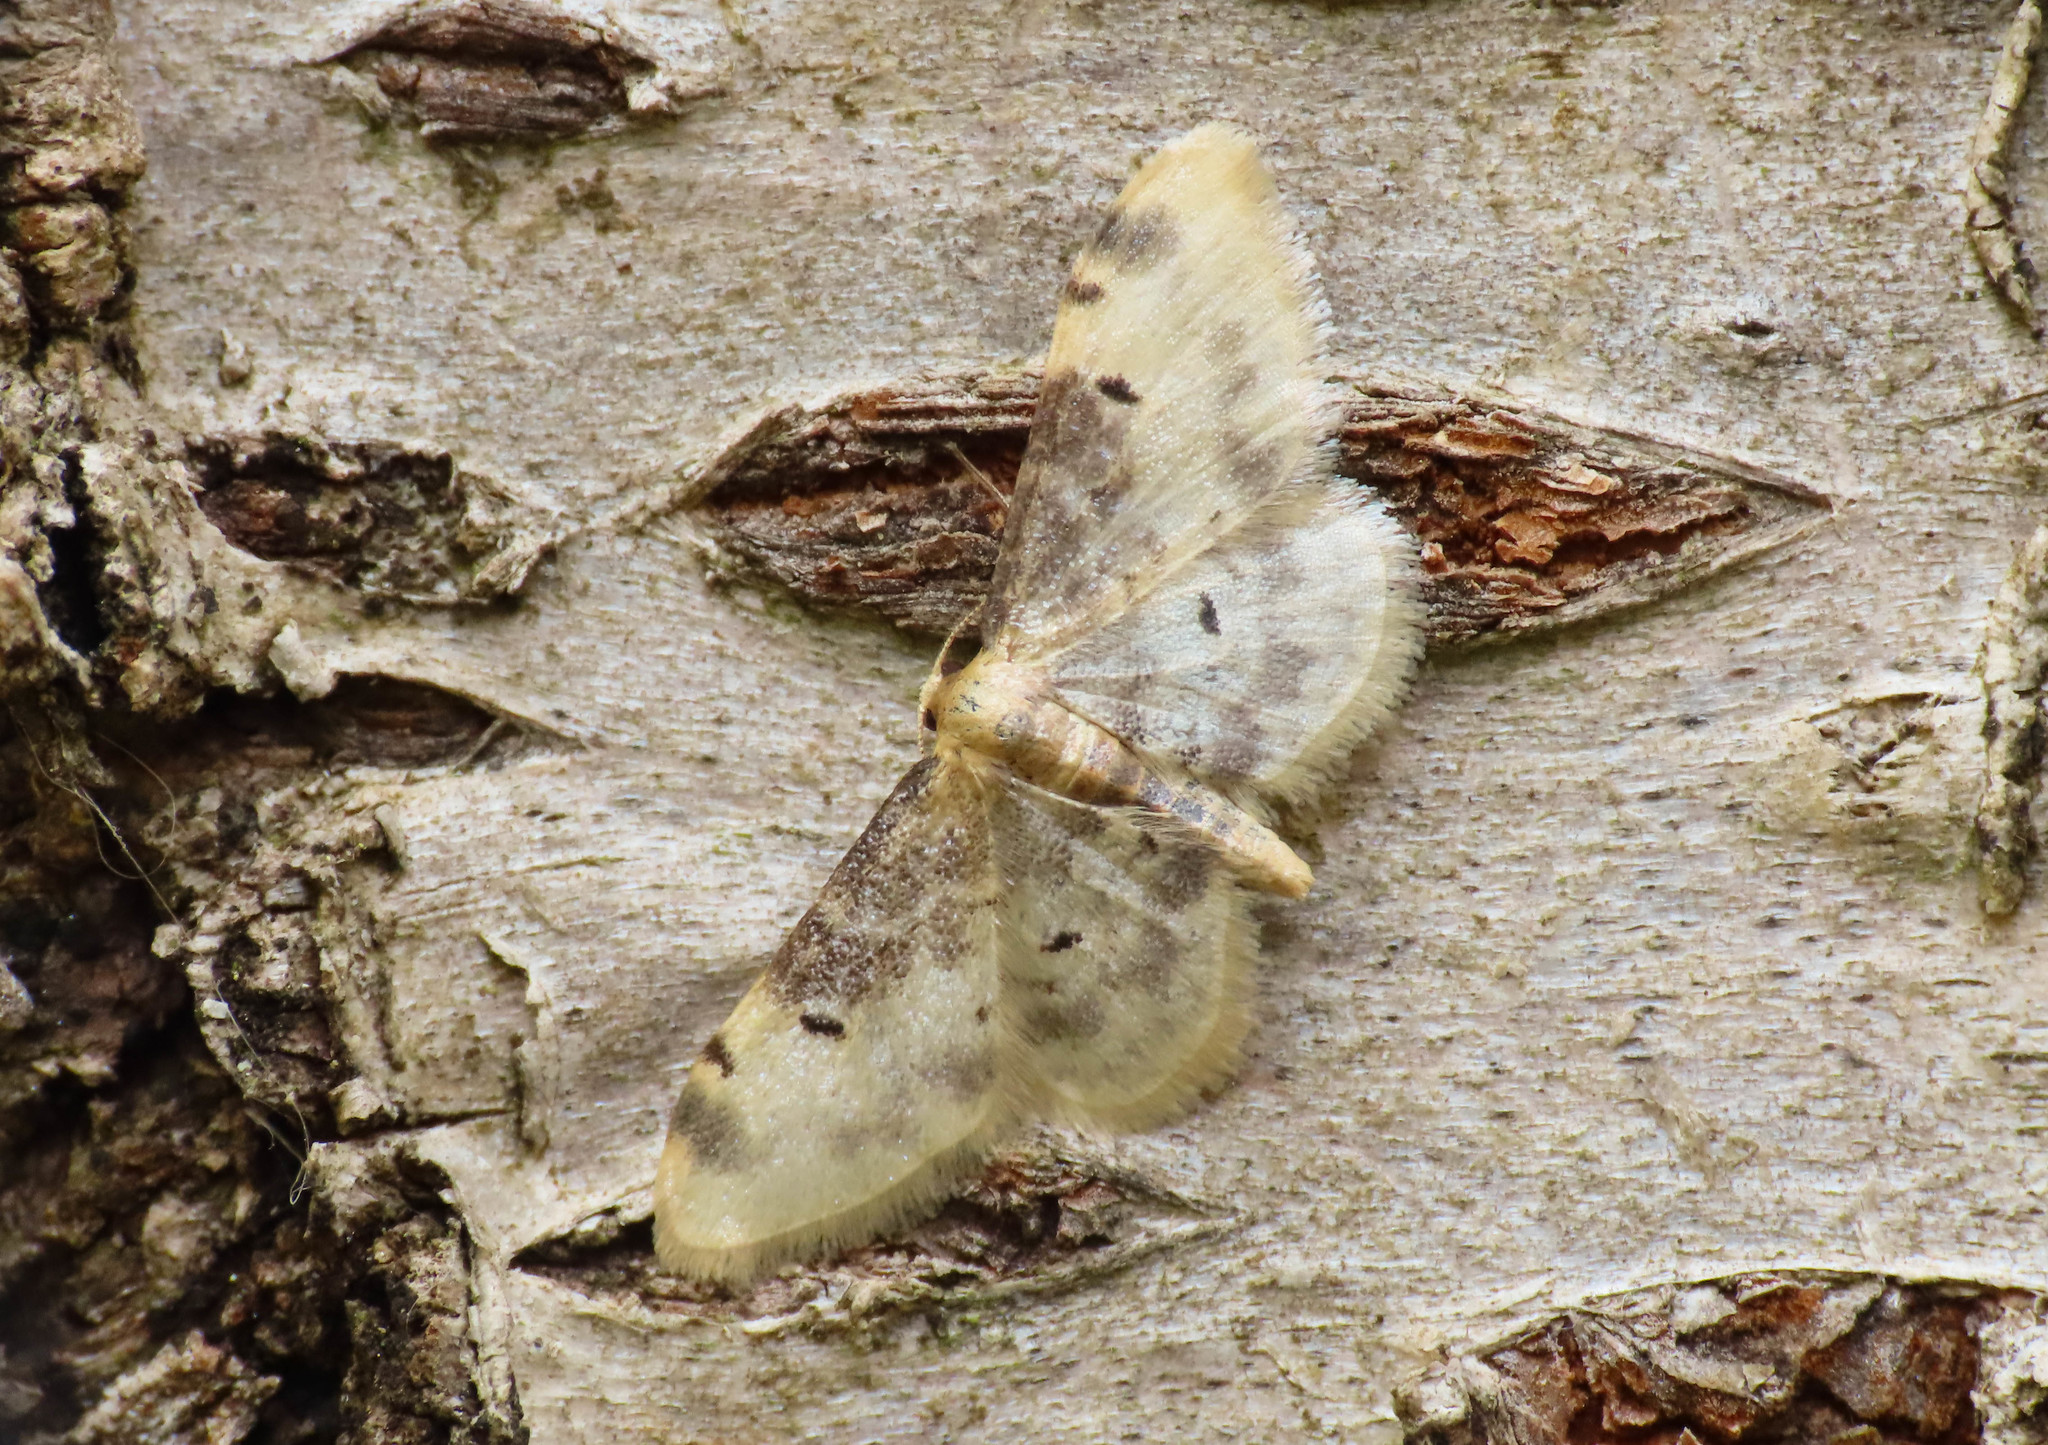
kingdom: Animalia
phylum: Arthropoda
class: Insecta
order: Lepidoptera
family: Geometridae
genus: Idaea
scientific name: Idaea filicata
